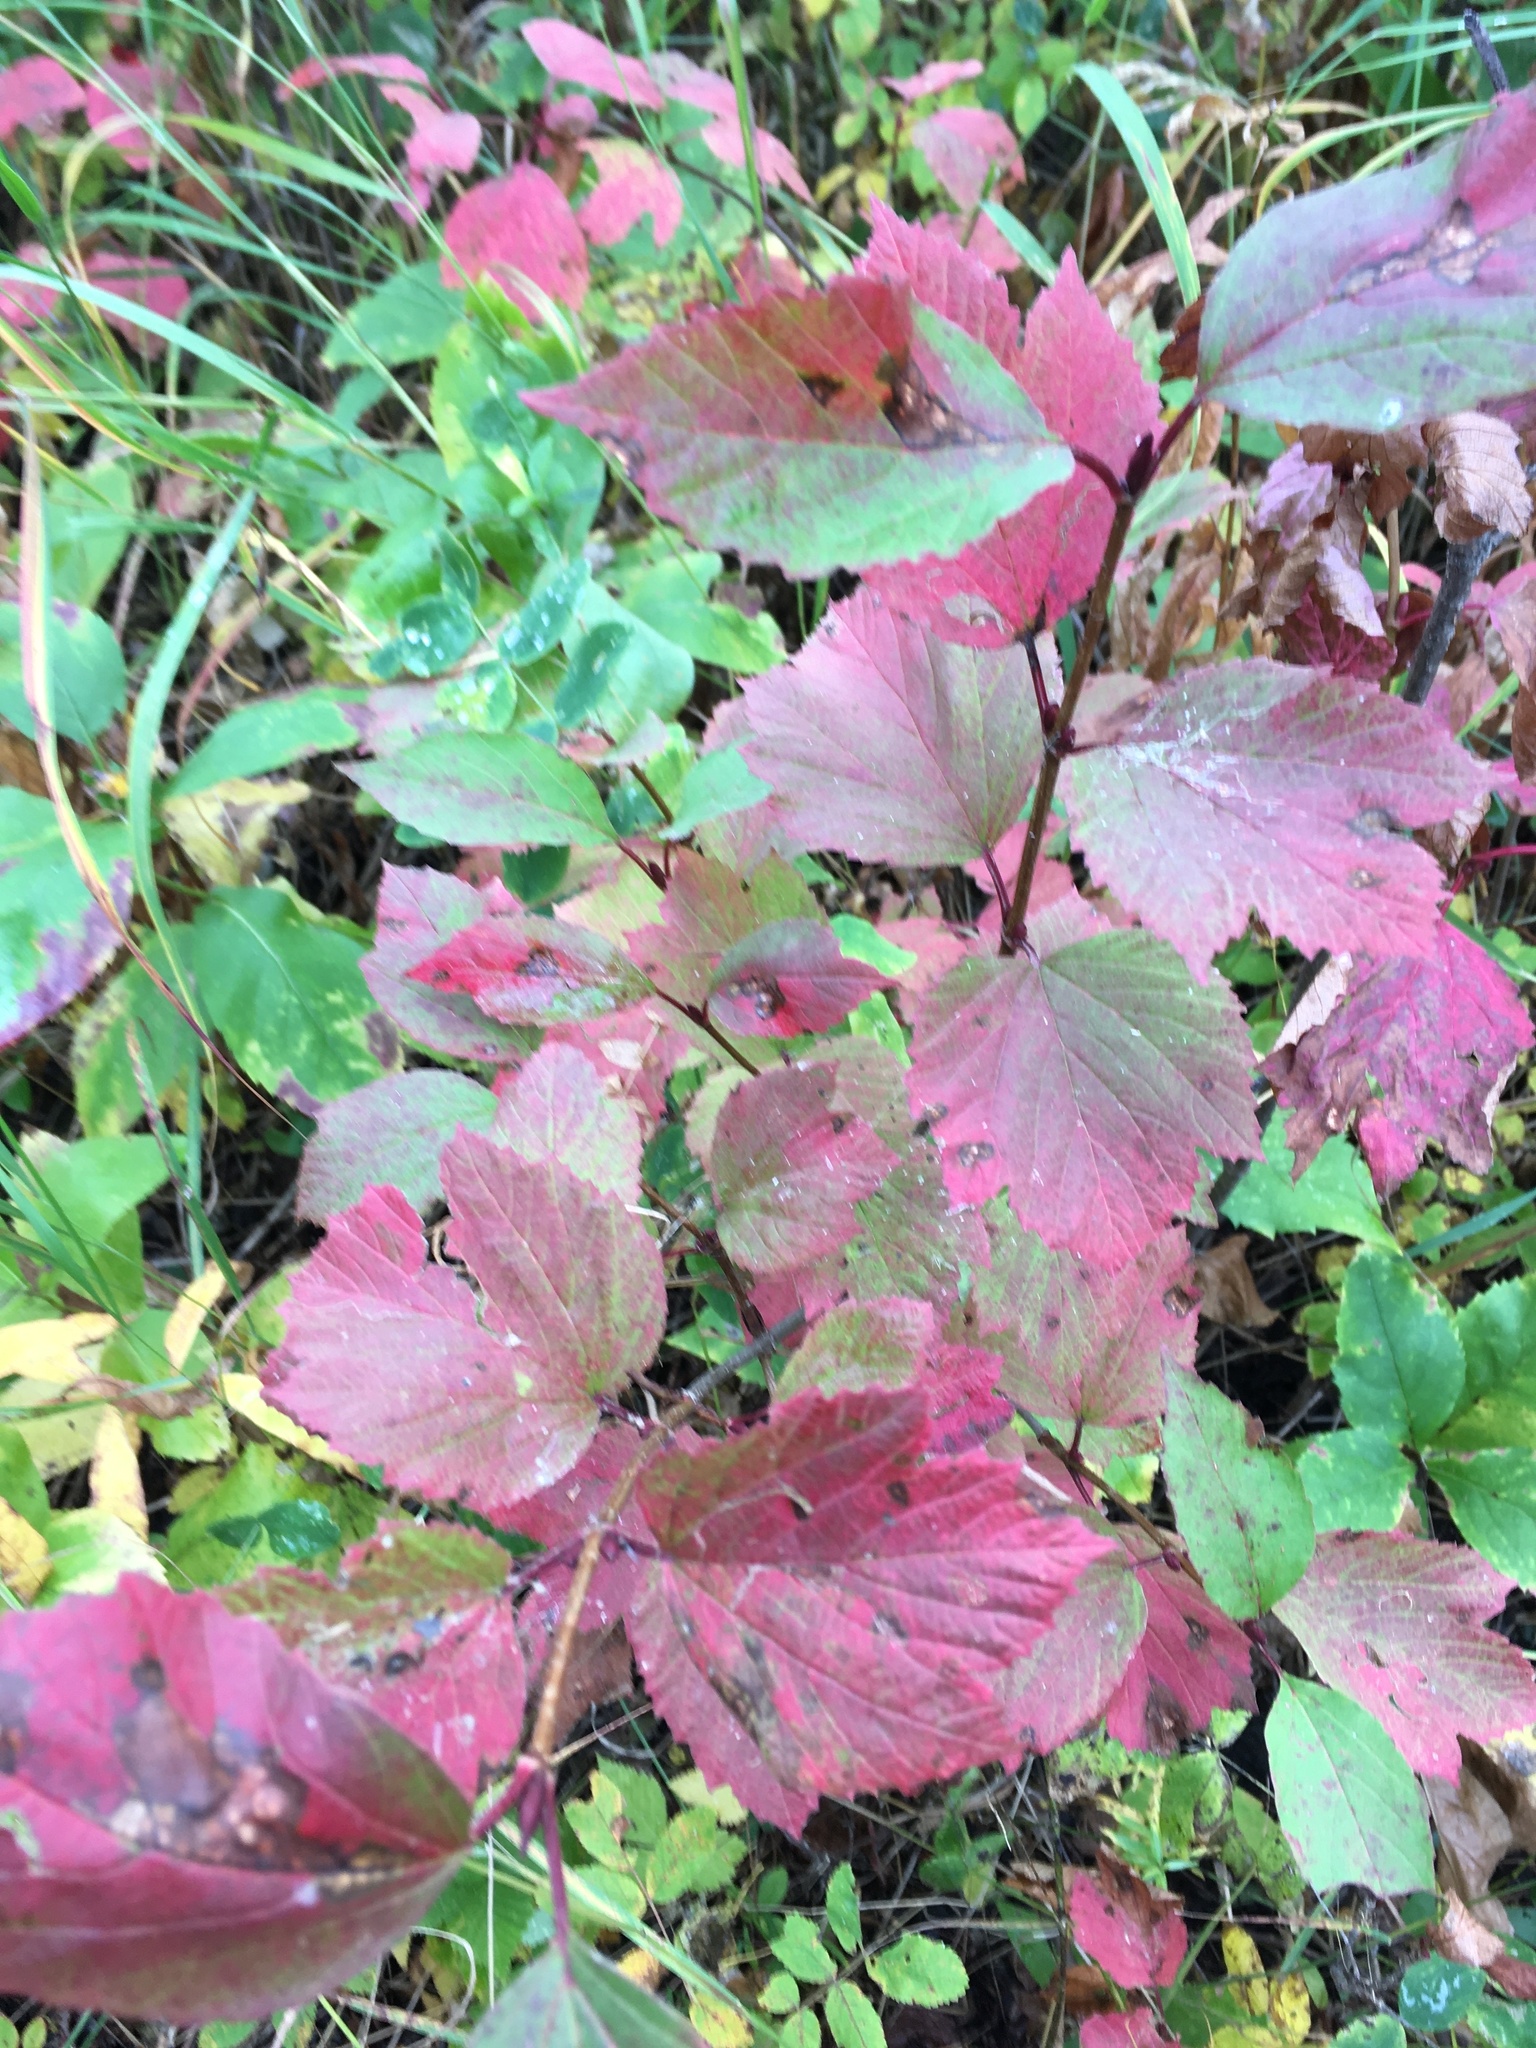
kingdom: Plantae
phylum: Tracheophyta
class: Magnoliopsida
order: Dipsacales
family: Viburnaceae
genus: Viburnum
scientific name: Viburnum edule
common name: Mooseberry
